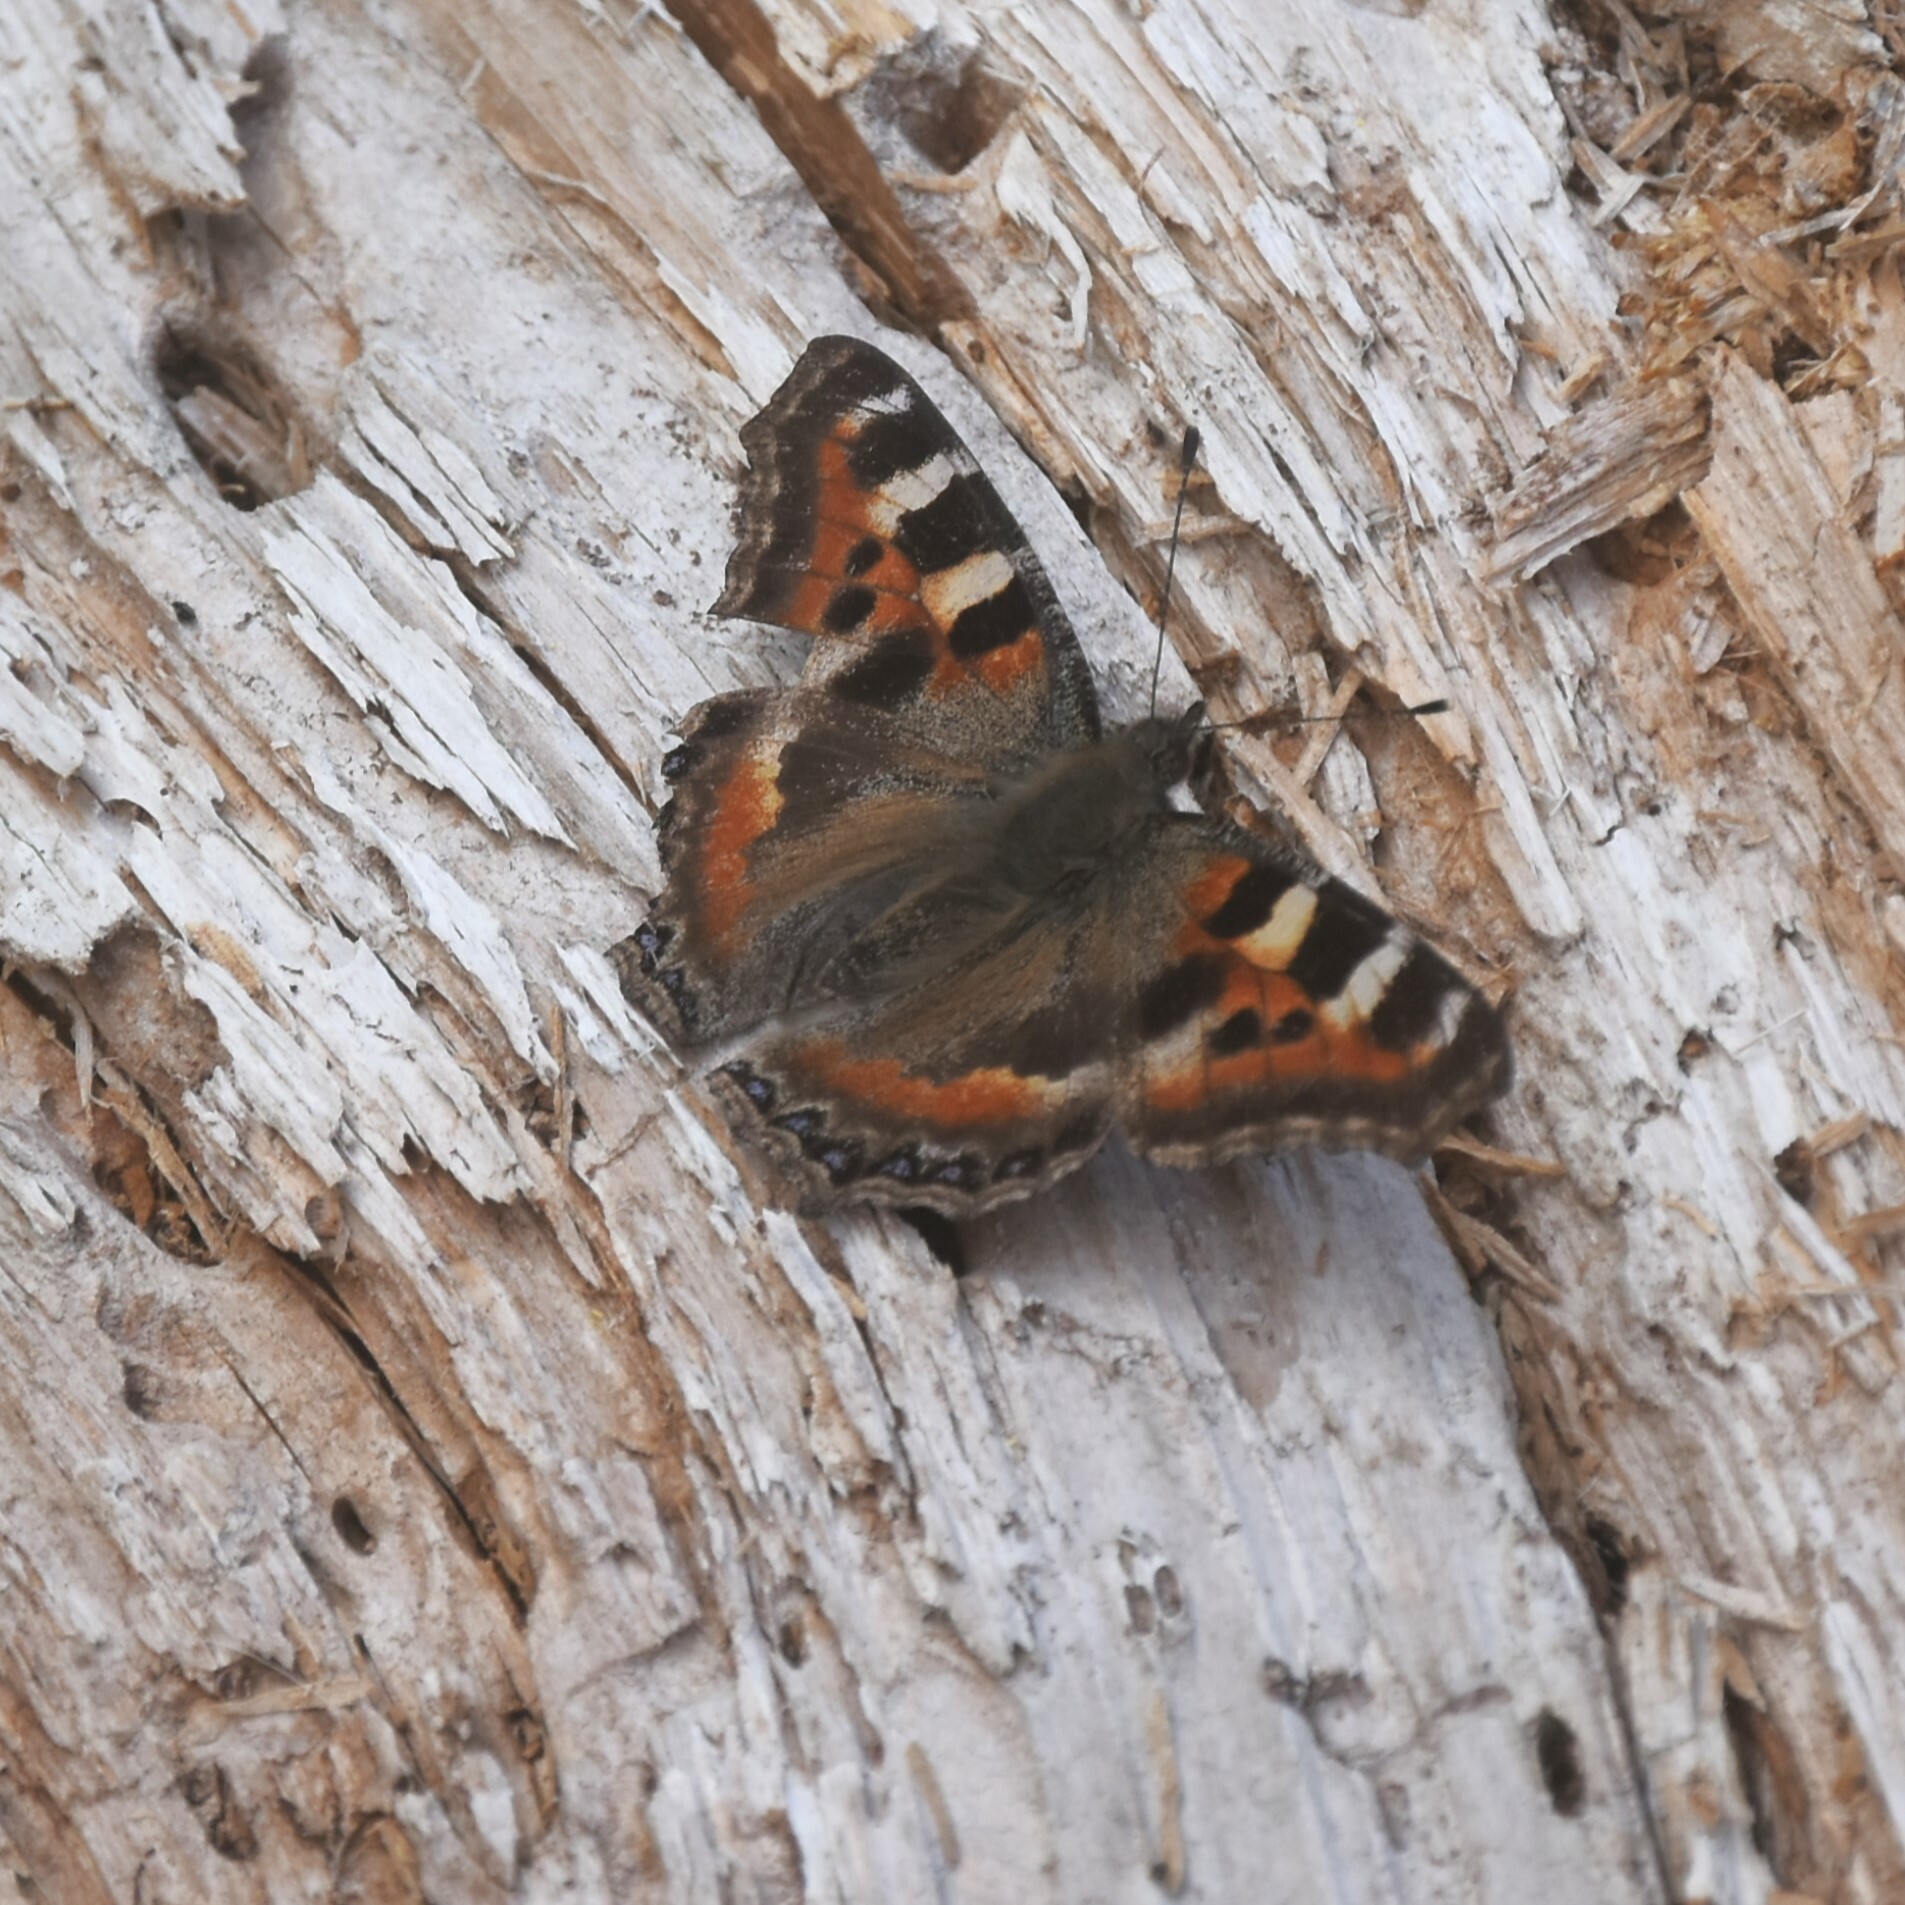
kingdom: Animalia
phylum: Arthropoda
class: Insecta
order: Lepidoptera
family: Nymphalidae
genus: Aglais
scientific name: Aglais caschmirensis
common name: Indian tortoiseshell
